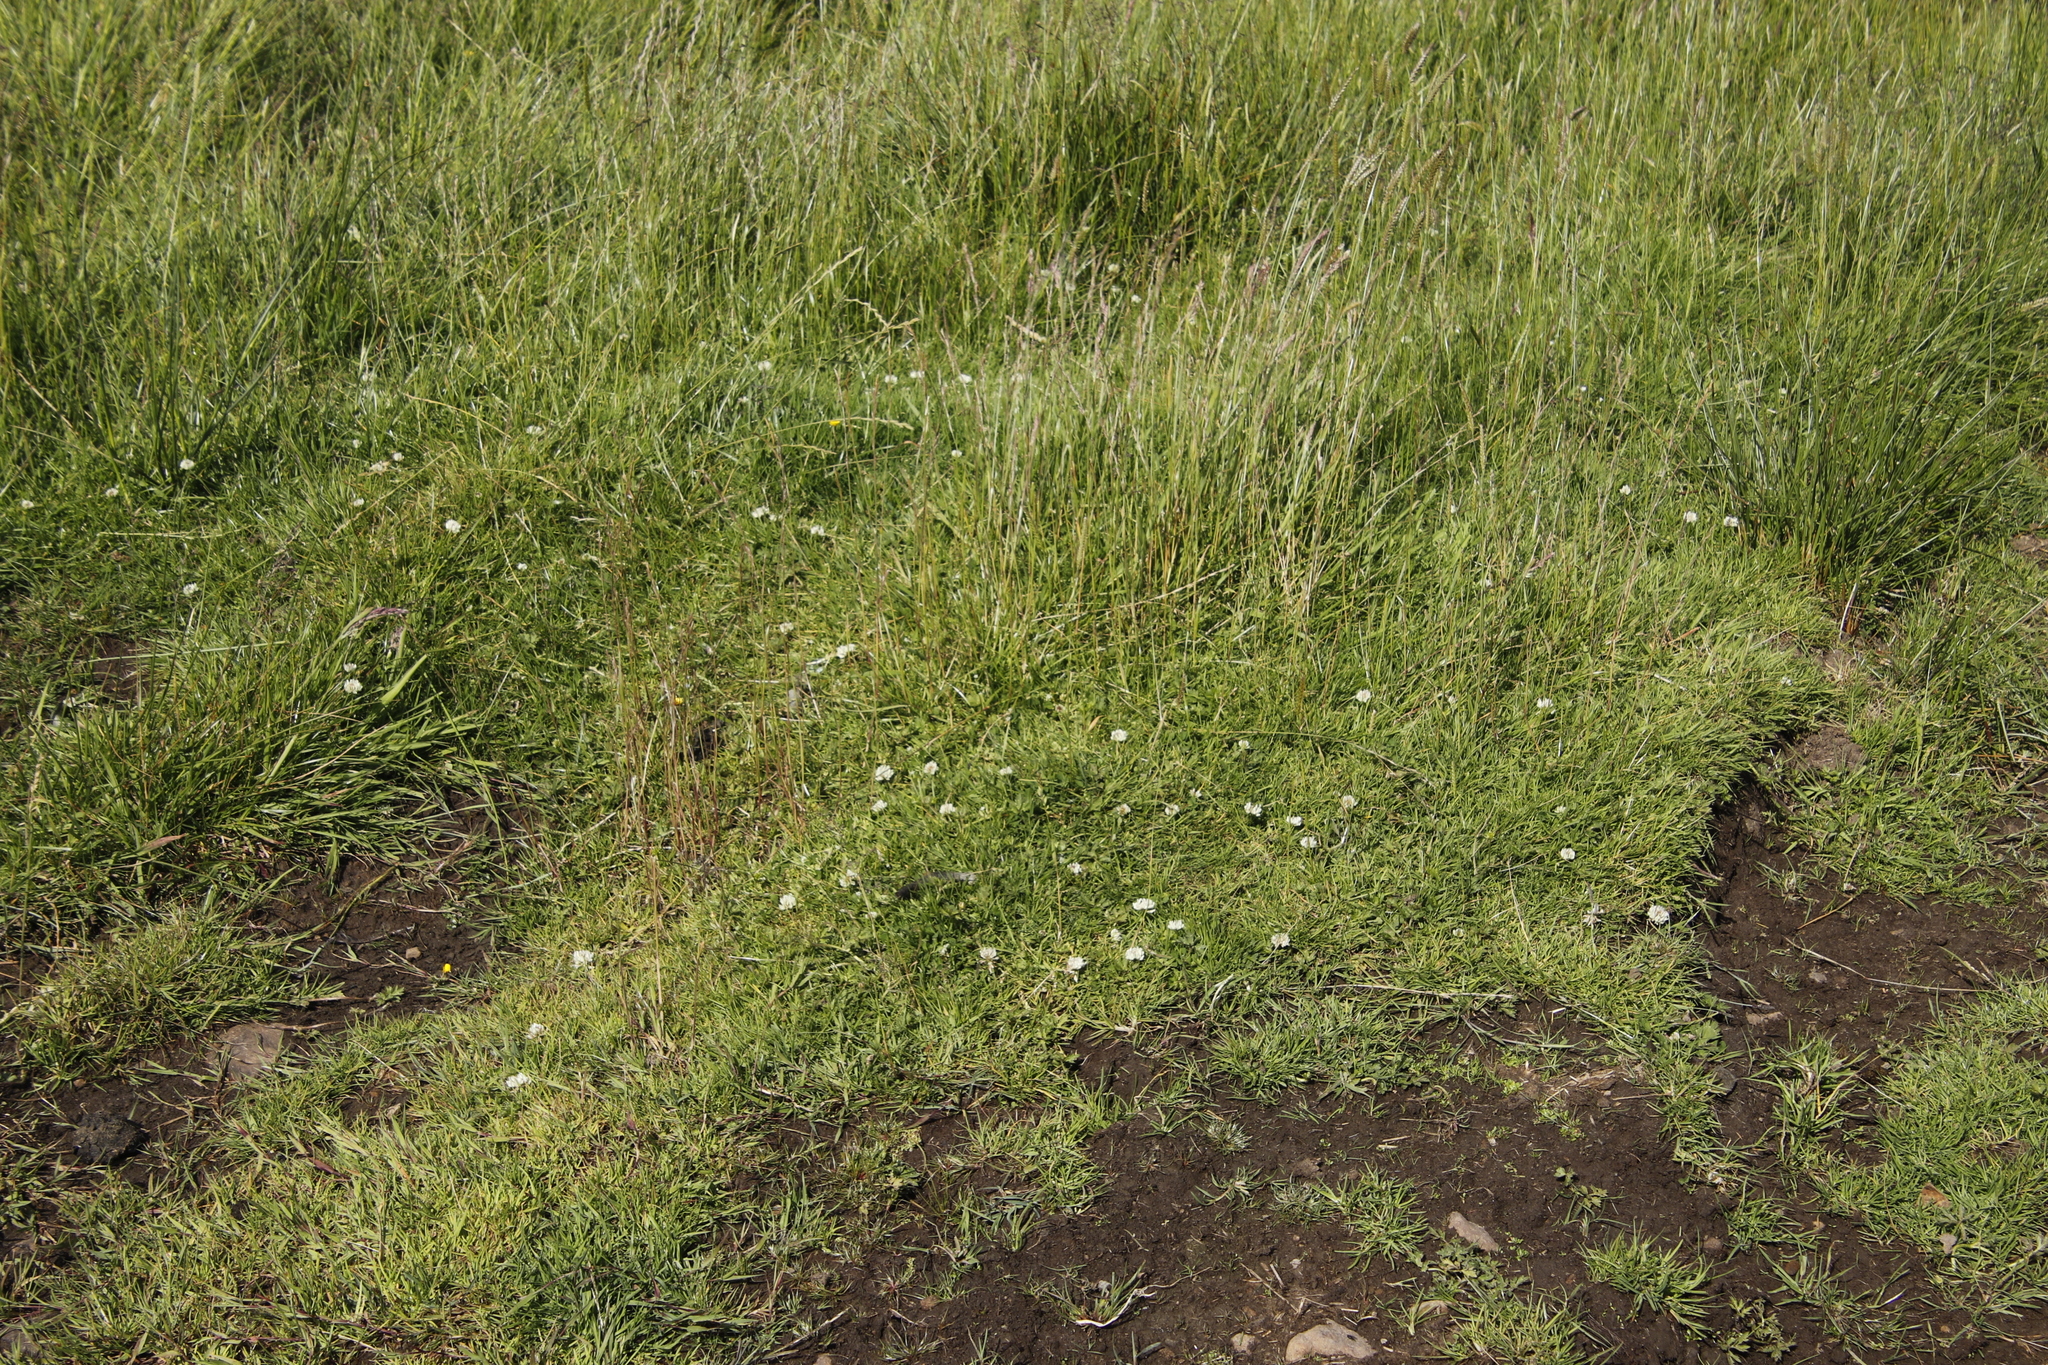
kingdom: Plantae
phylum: Tracheophyta
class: Magnoliopsida
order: Fabales
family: Fabaceae
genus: Trifolium
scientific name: Trifolium repens
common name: White clover
